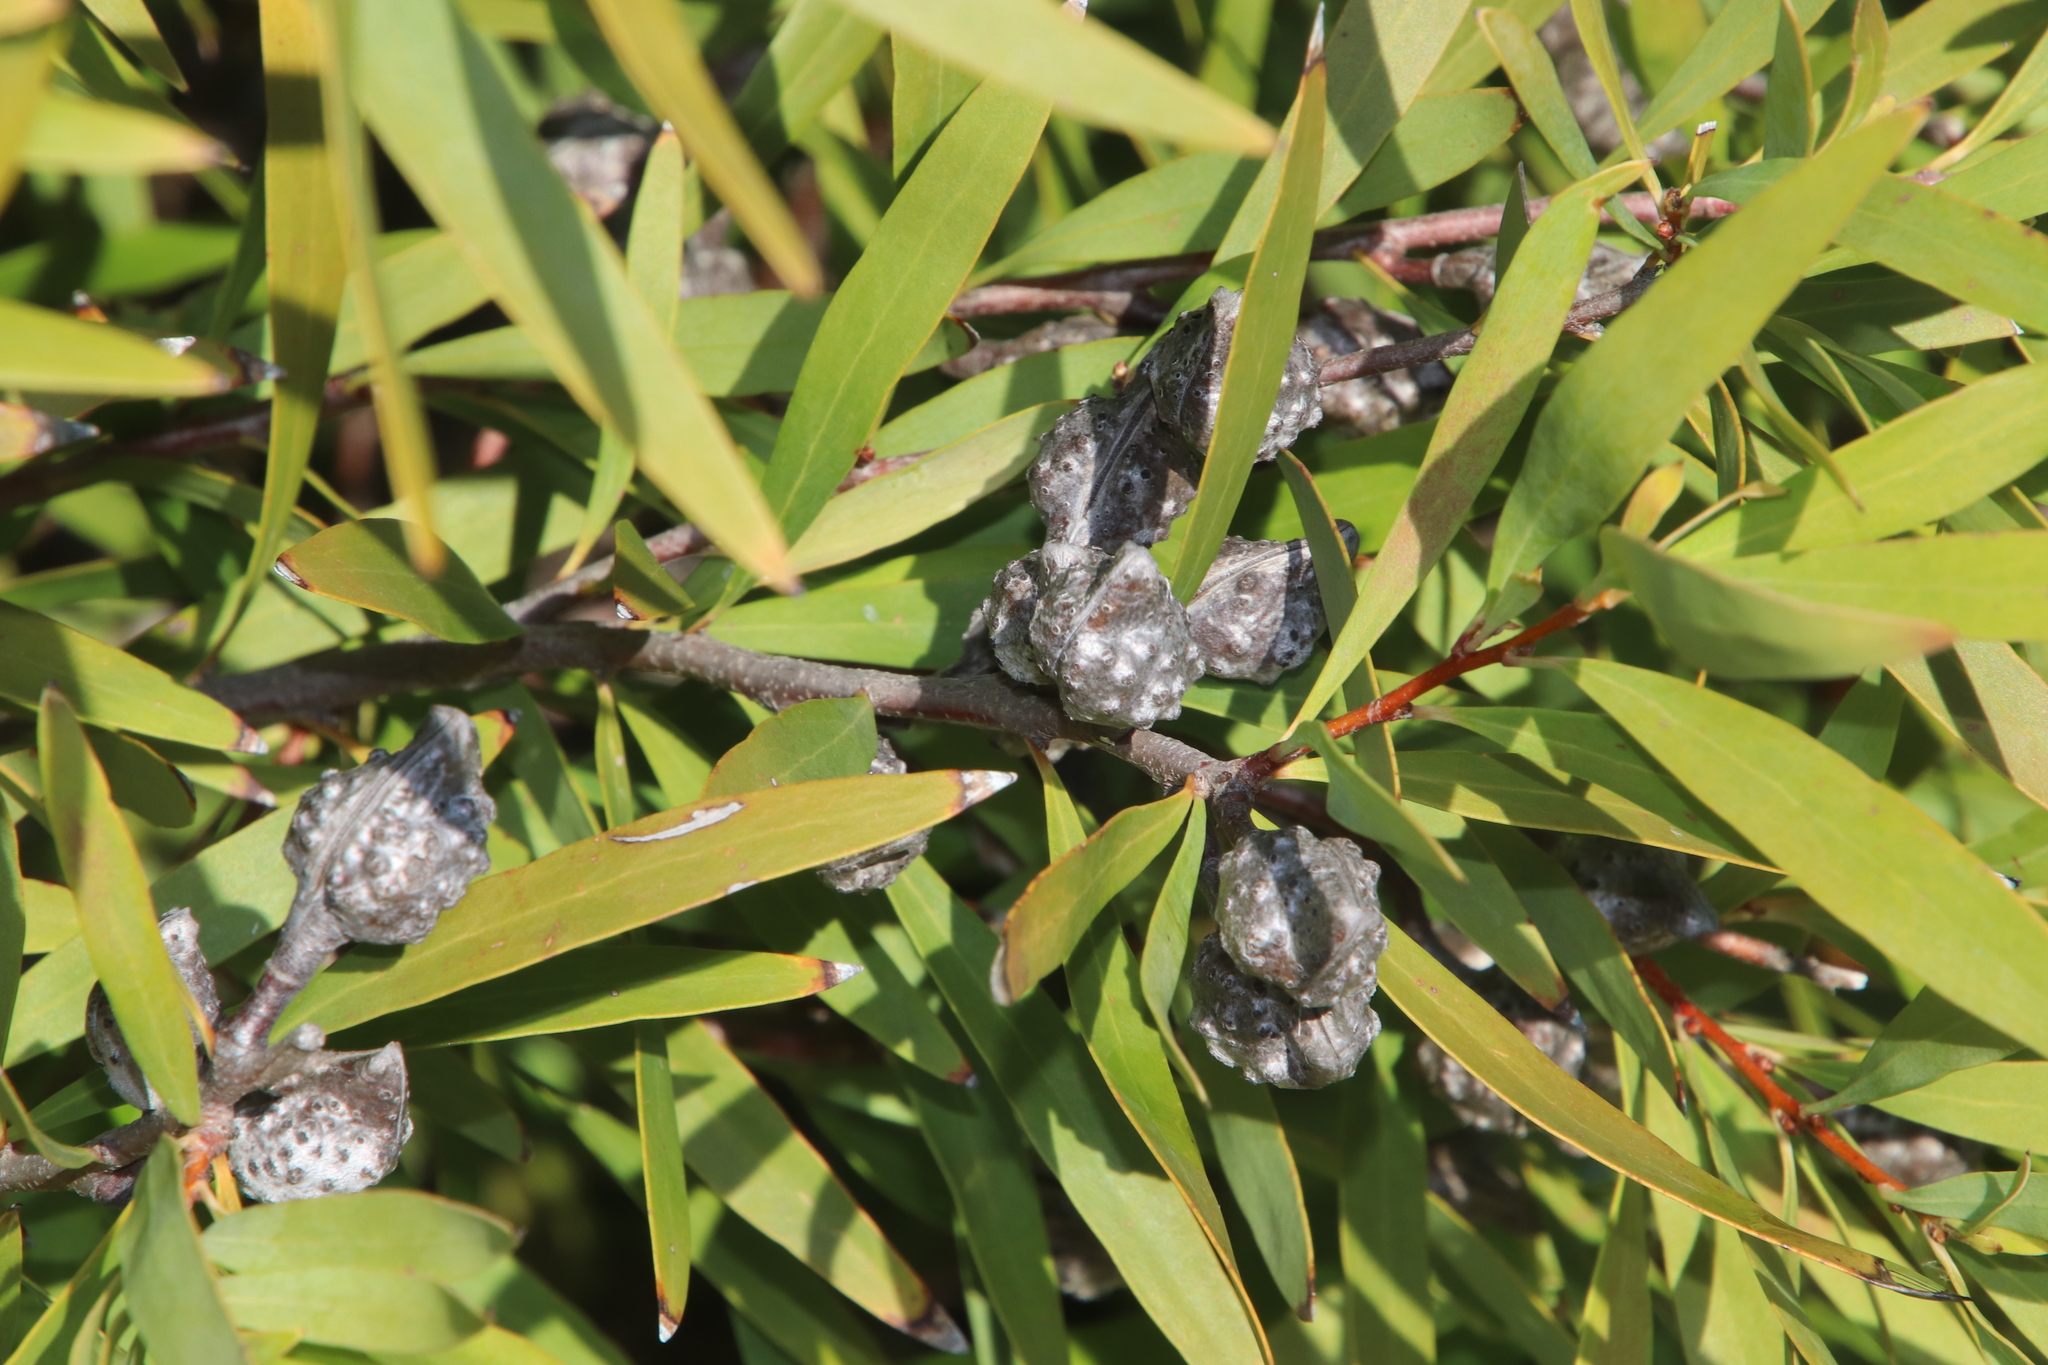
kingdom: Plantae
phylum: Tracheophyta
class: Magnoliopsida
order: Proteales
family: Proteaceae
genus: Hakea
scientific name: Hakea salicifolia
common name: Willow hakea
